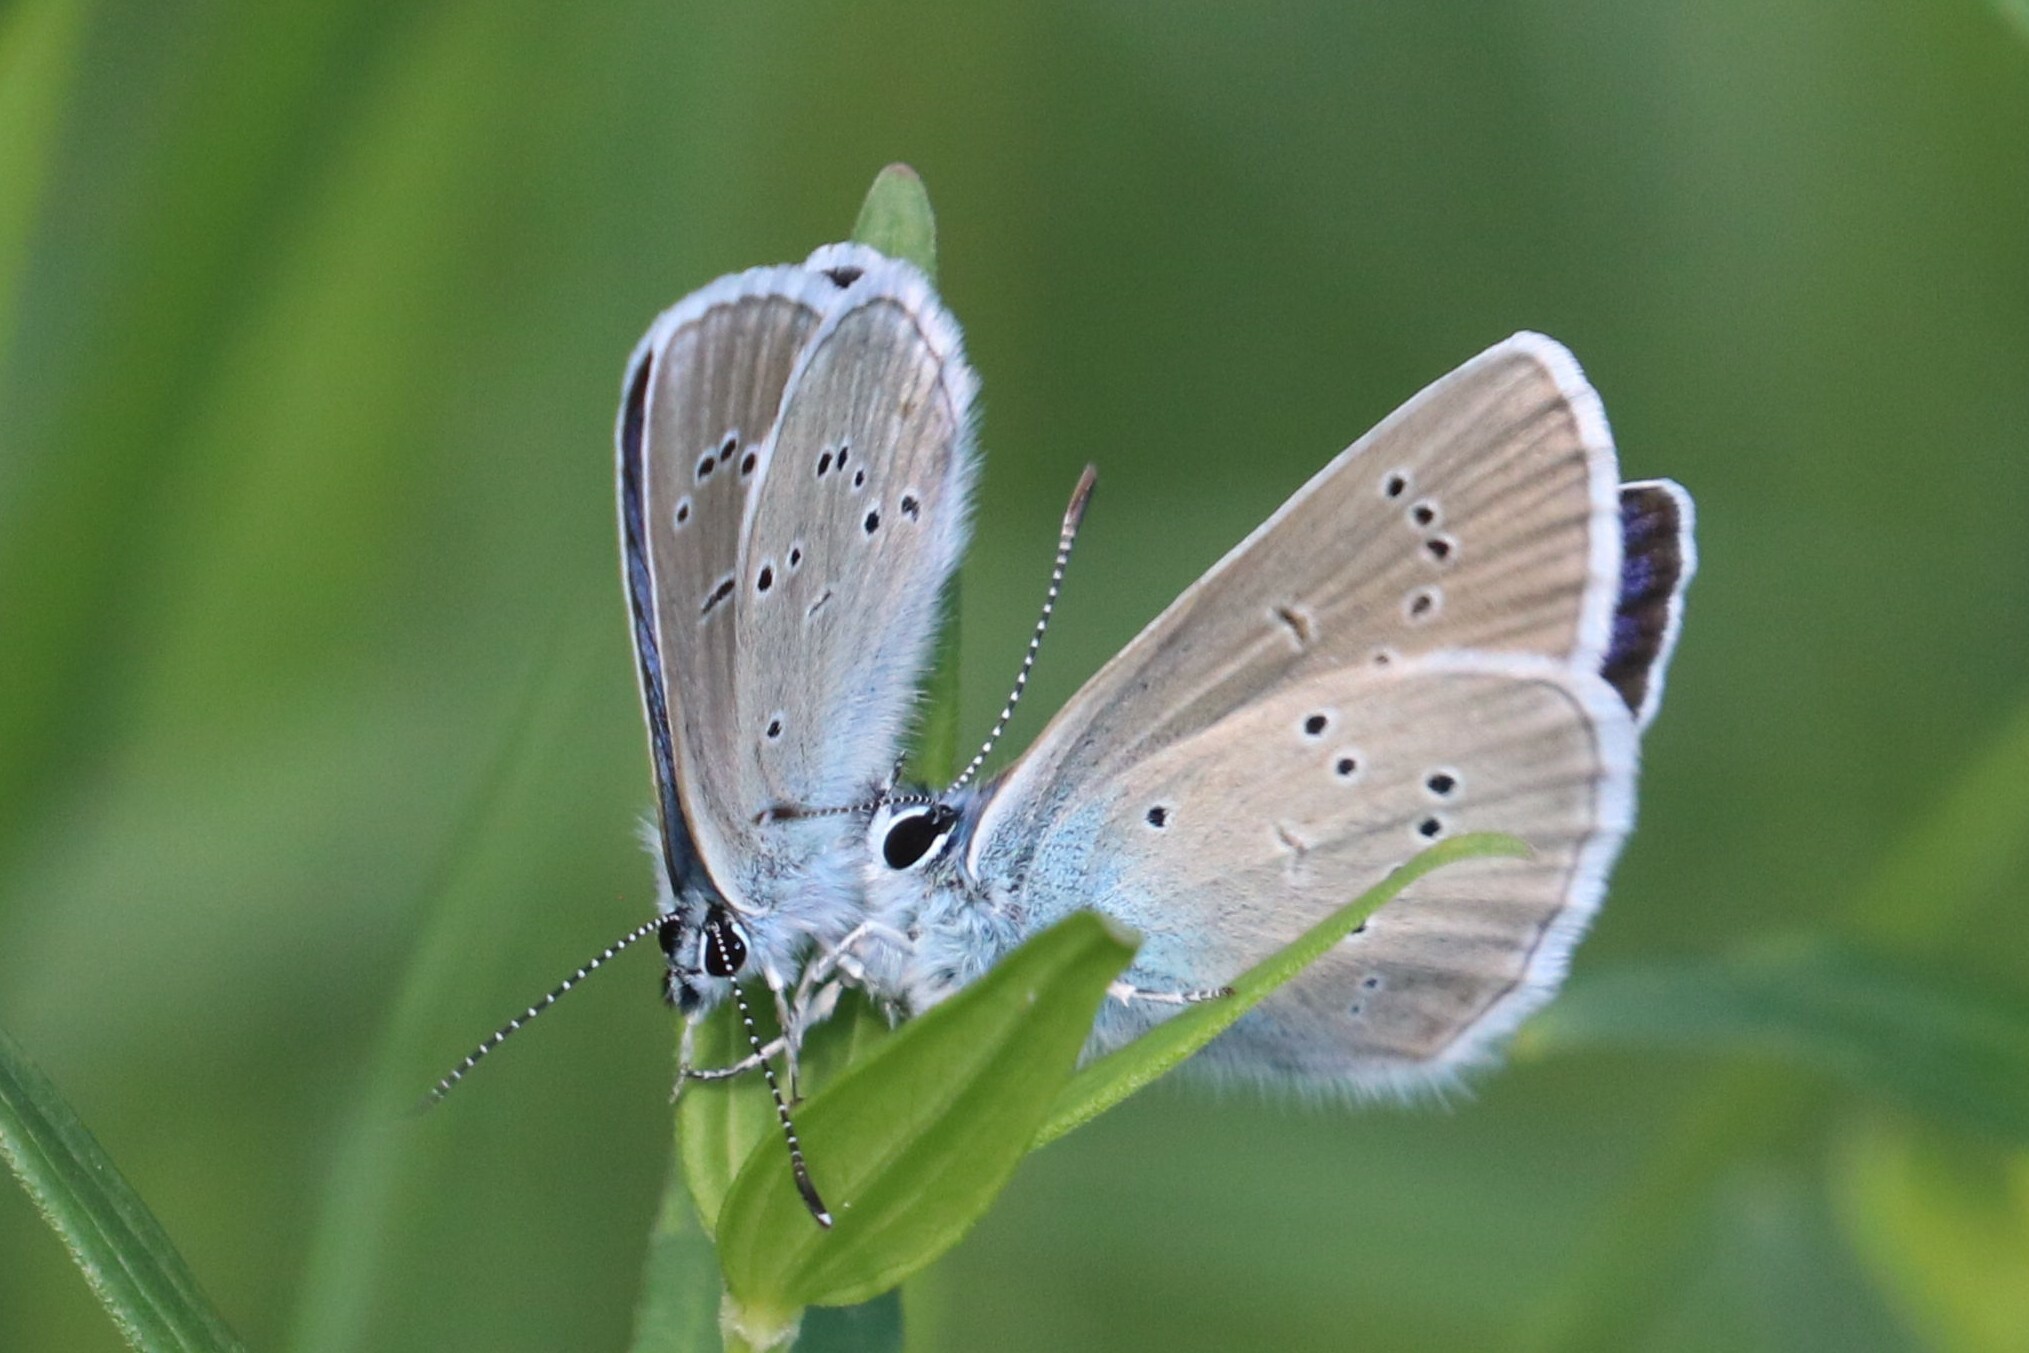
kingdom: Animalia
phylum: Arthropoda
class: Insecta
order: Lepidoptera
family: Lycaenidae
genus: Cyaniris
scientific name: Cyaniris semiargus
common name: Mazarine blue
